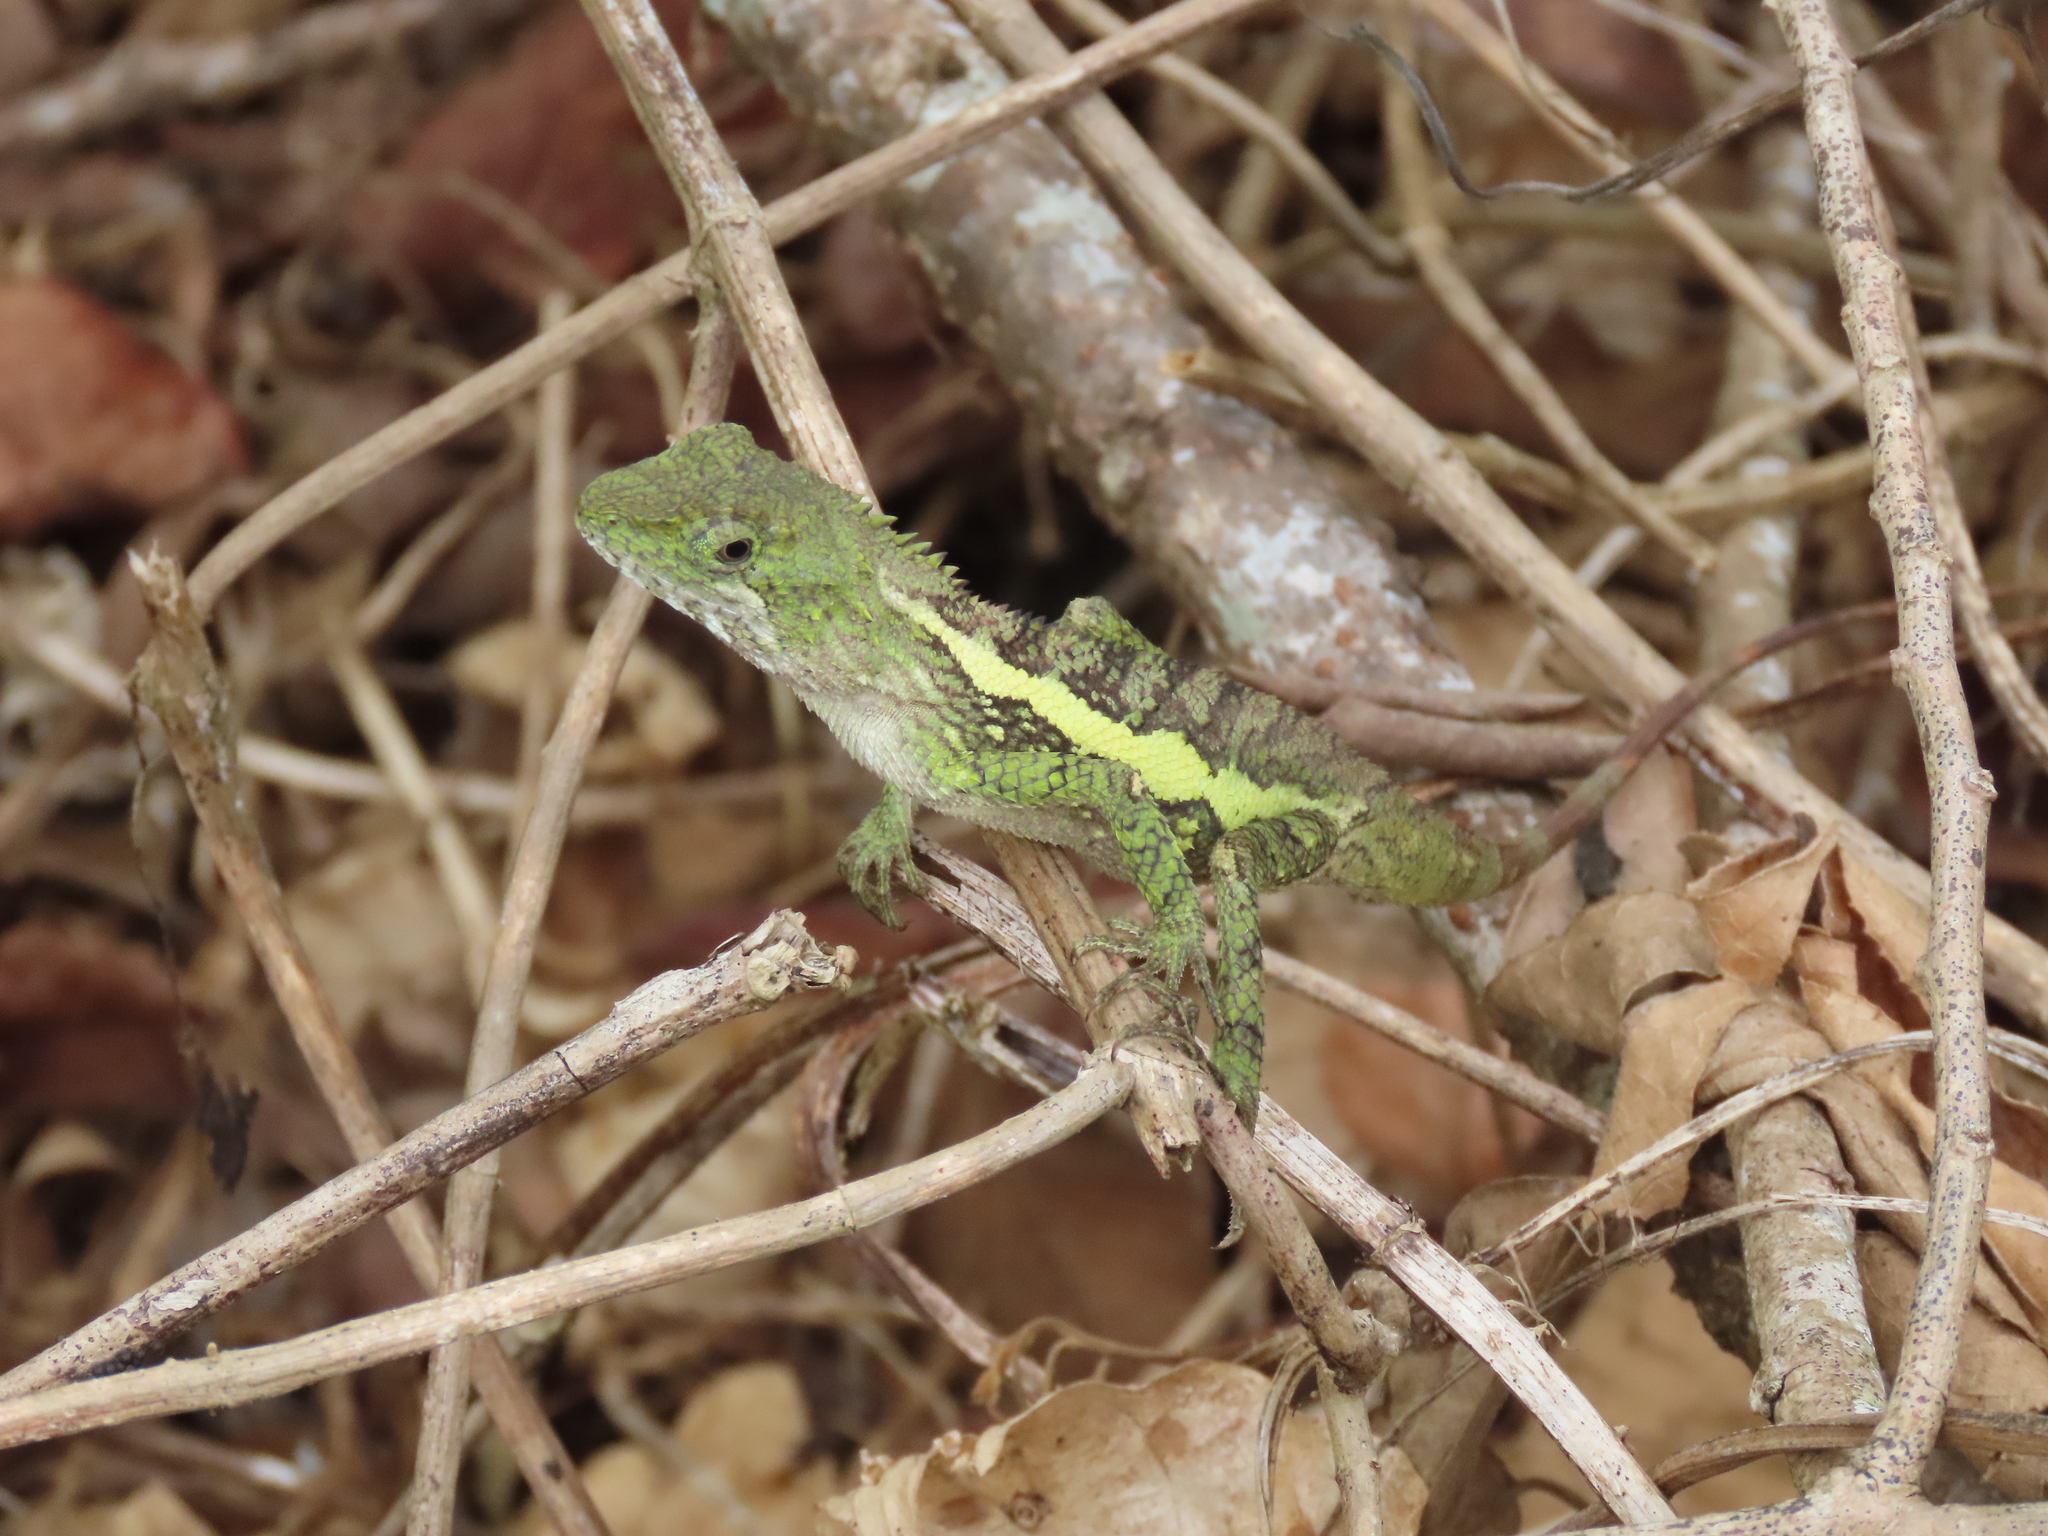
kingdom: Animalia
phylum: Chordata
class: Squamata
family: Agamidae
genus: Diploderma
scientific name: Diploderma swinhonis
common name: Taiwan japalure
